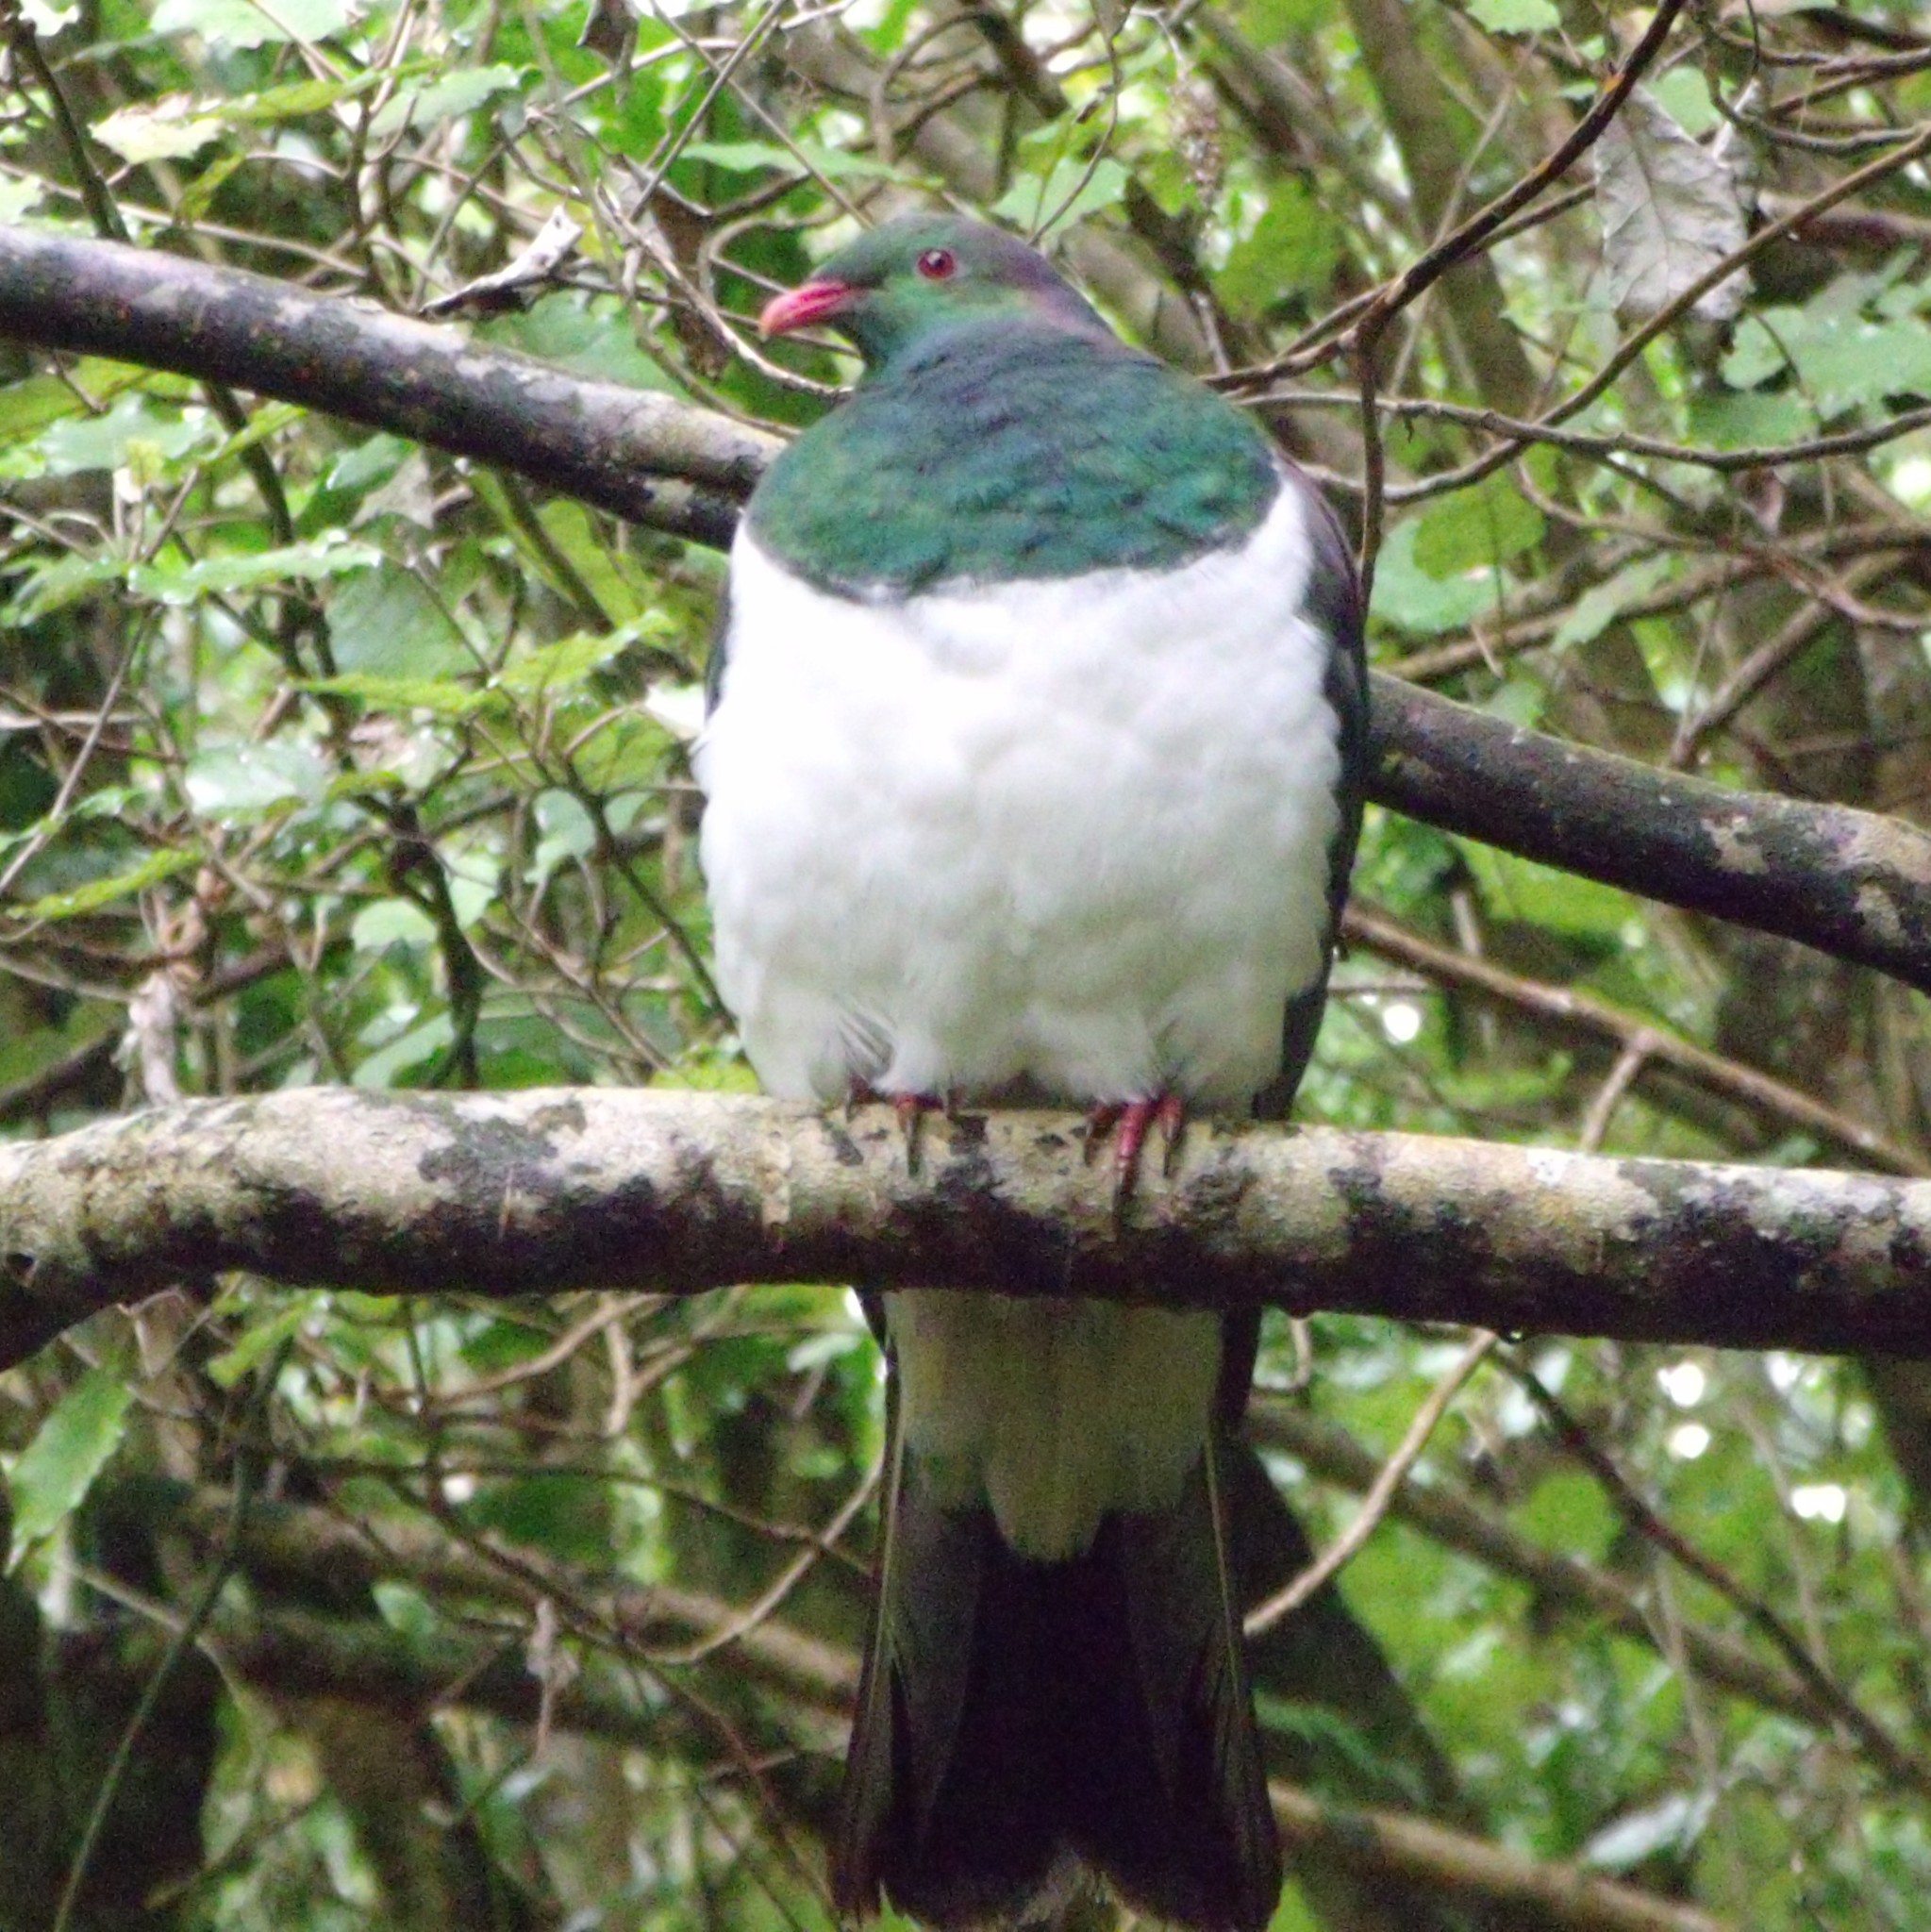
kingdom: Animalia
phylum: Chordata
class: Aves
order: Columbiformes
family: Columbidae
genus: Hemiphaga
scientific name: Hemiphaga novaeseelandiae
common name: New zealand pigeon
